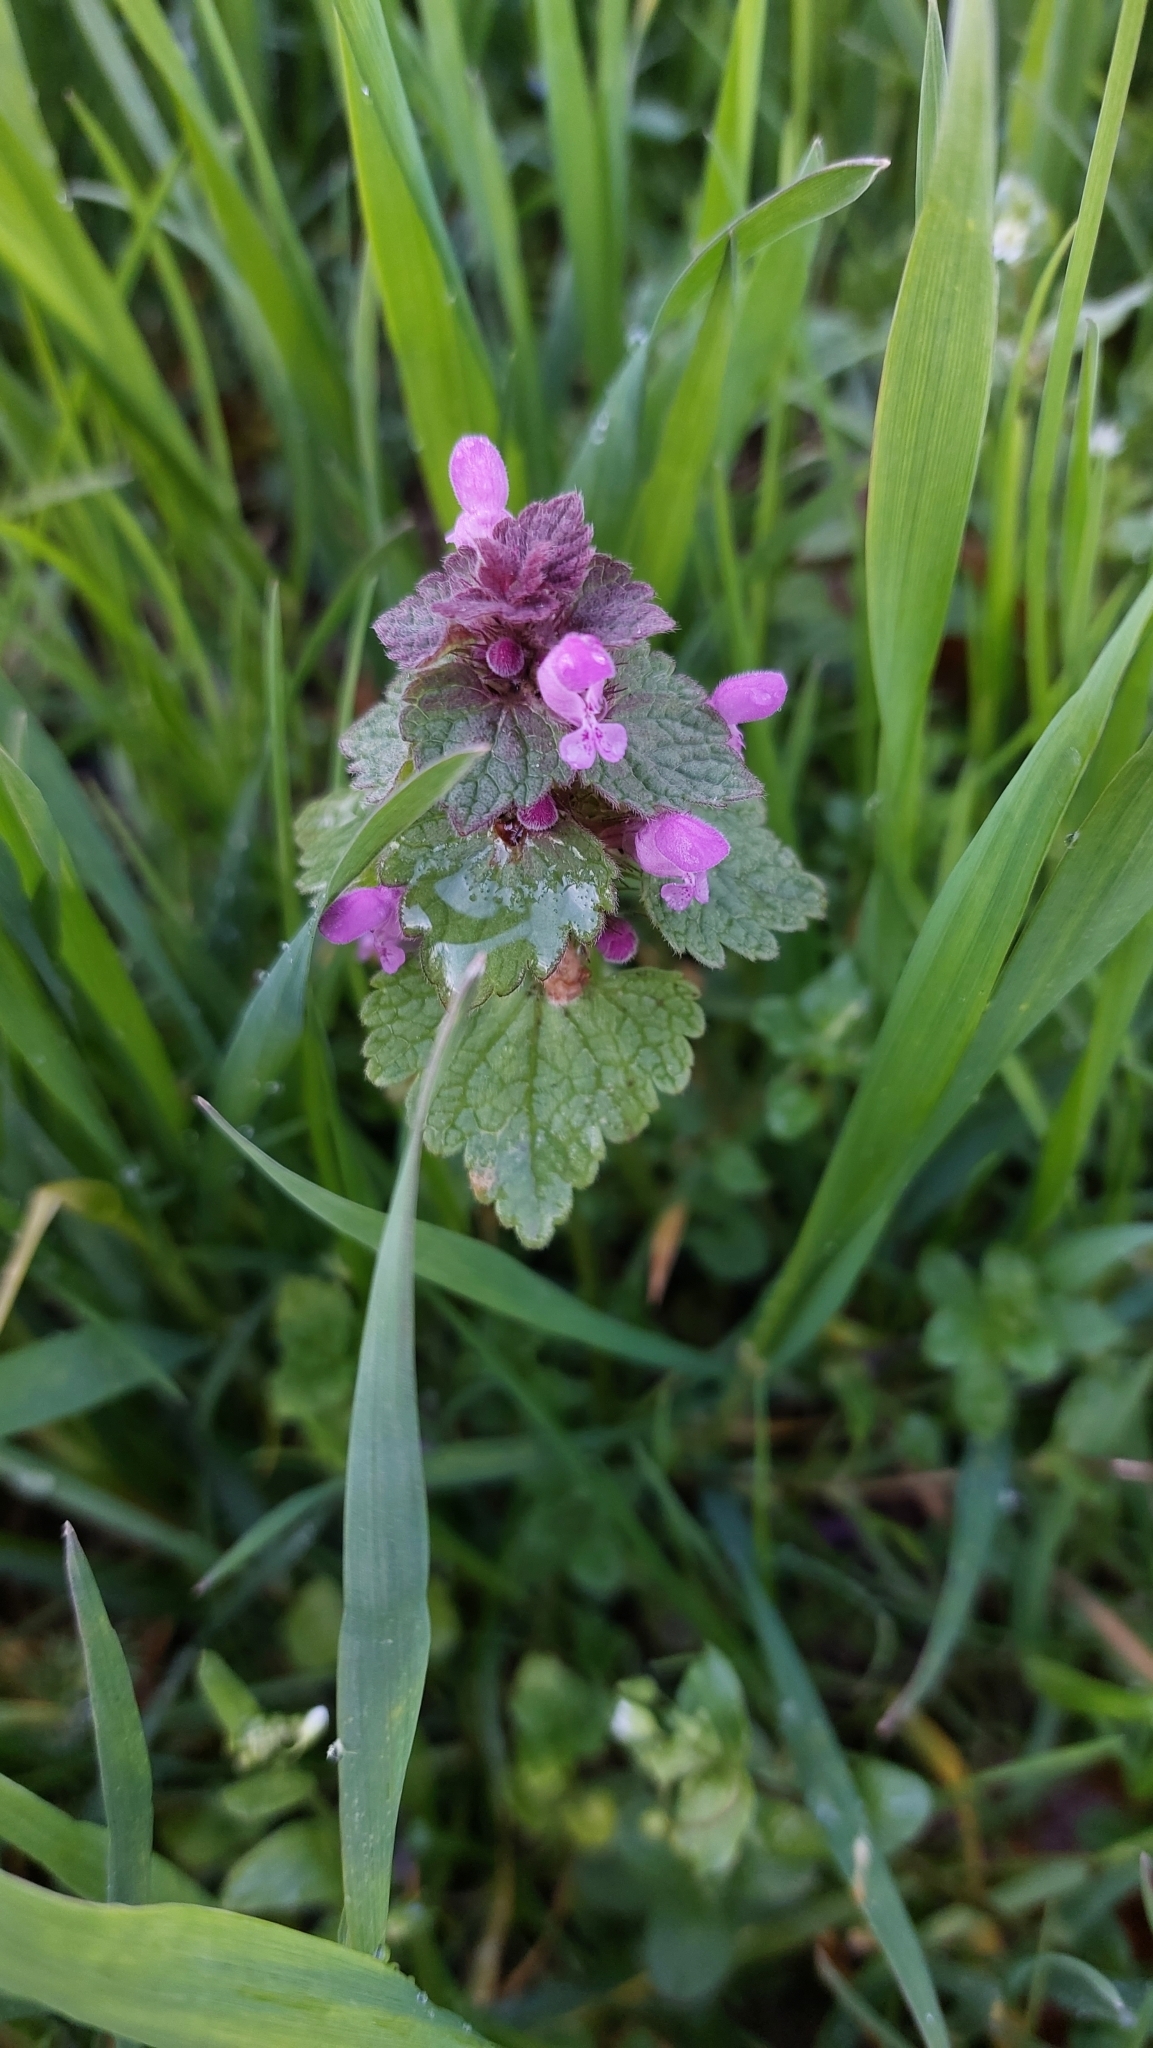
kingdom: Plantae
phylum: Tracheophyta
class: Magnoliopsida
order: Lamiales
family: Lamiaceae
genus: Lamium
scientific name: Lamium purpureum
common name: Red dead-nettle
